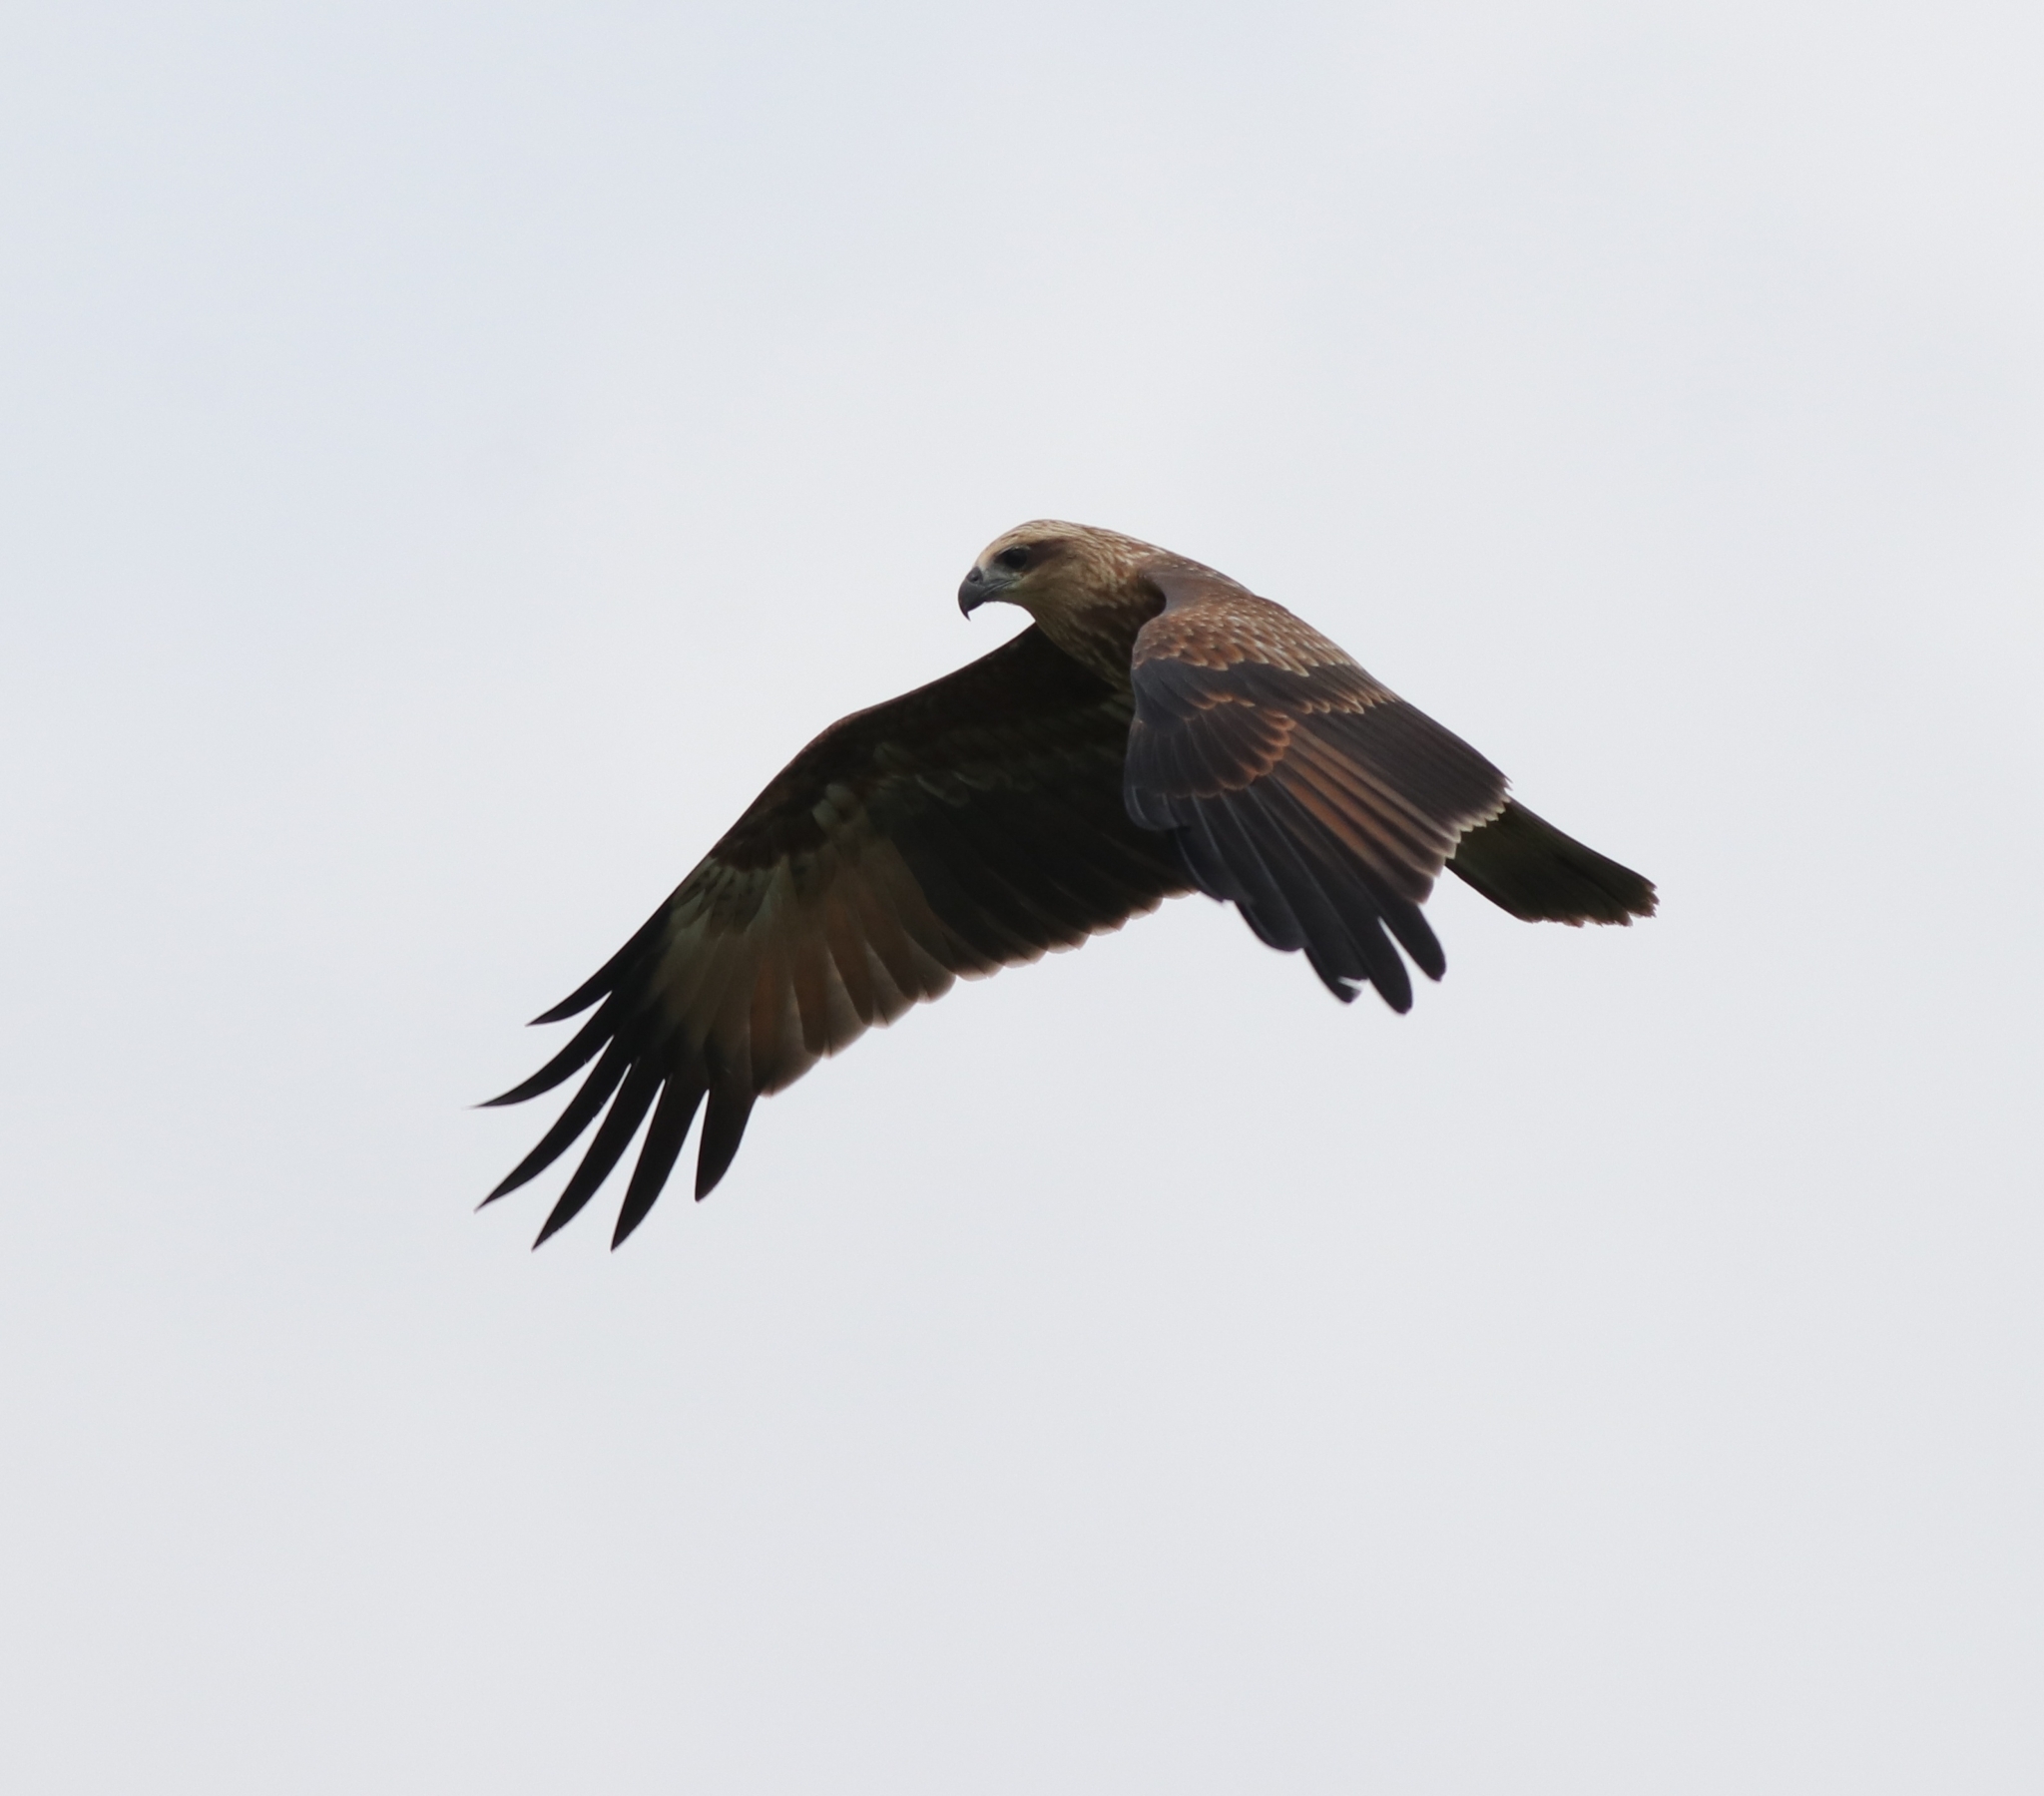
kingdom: Animalia
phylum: Chordata
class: Aves
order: Accipitriformes
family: Accipitridae
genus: Haliastur
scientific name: Haliastur indus
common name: Brahminy kite
